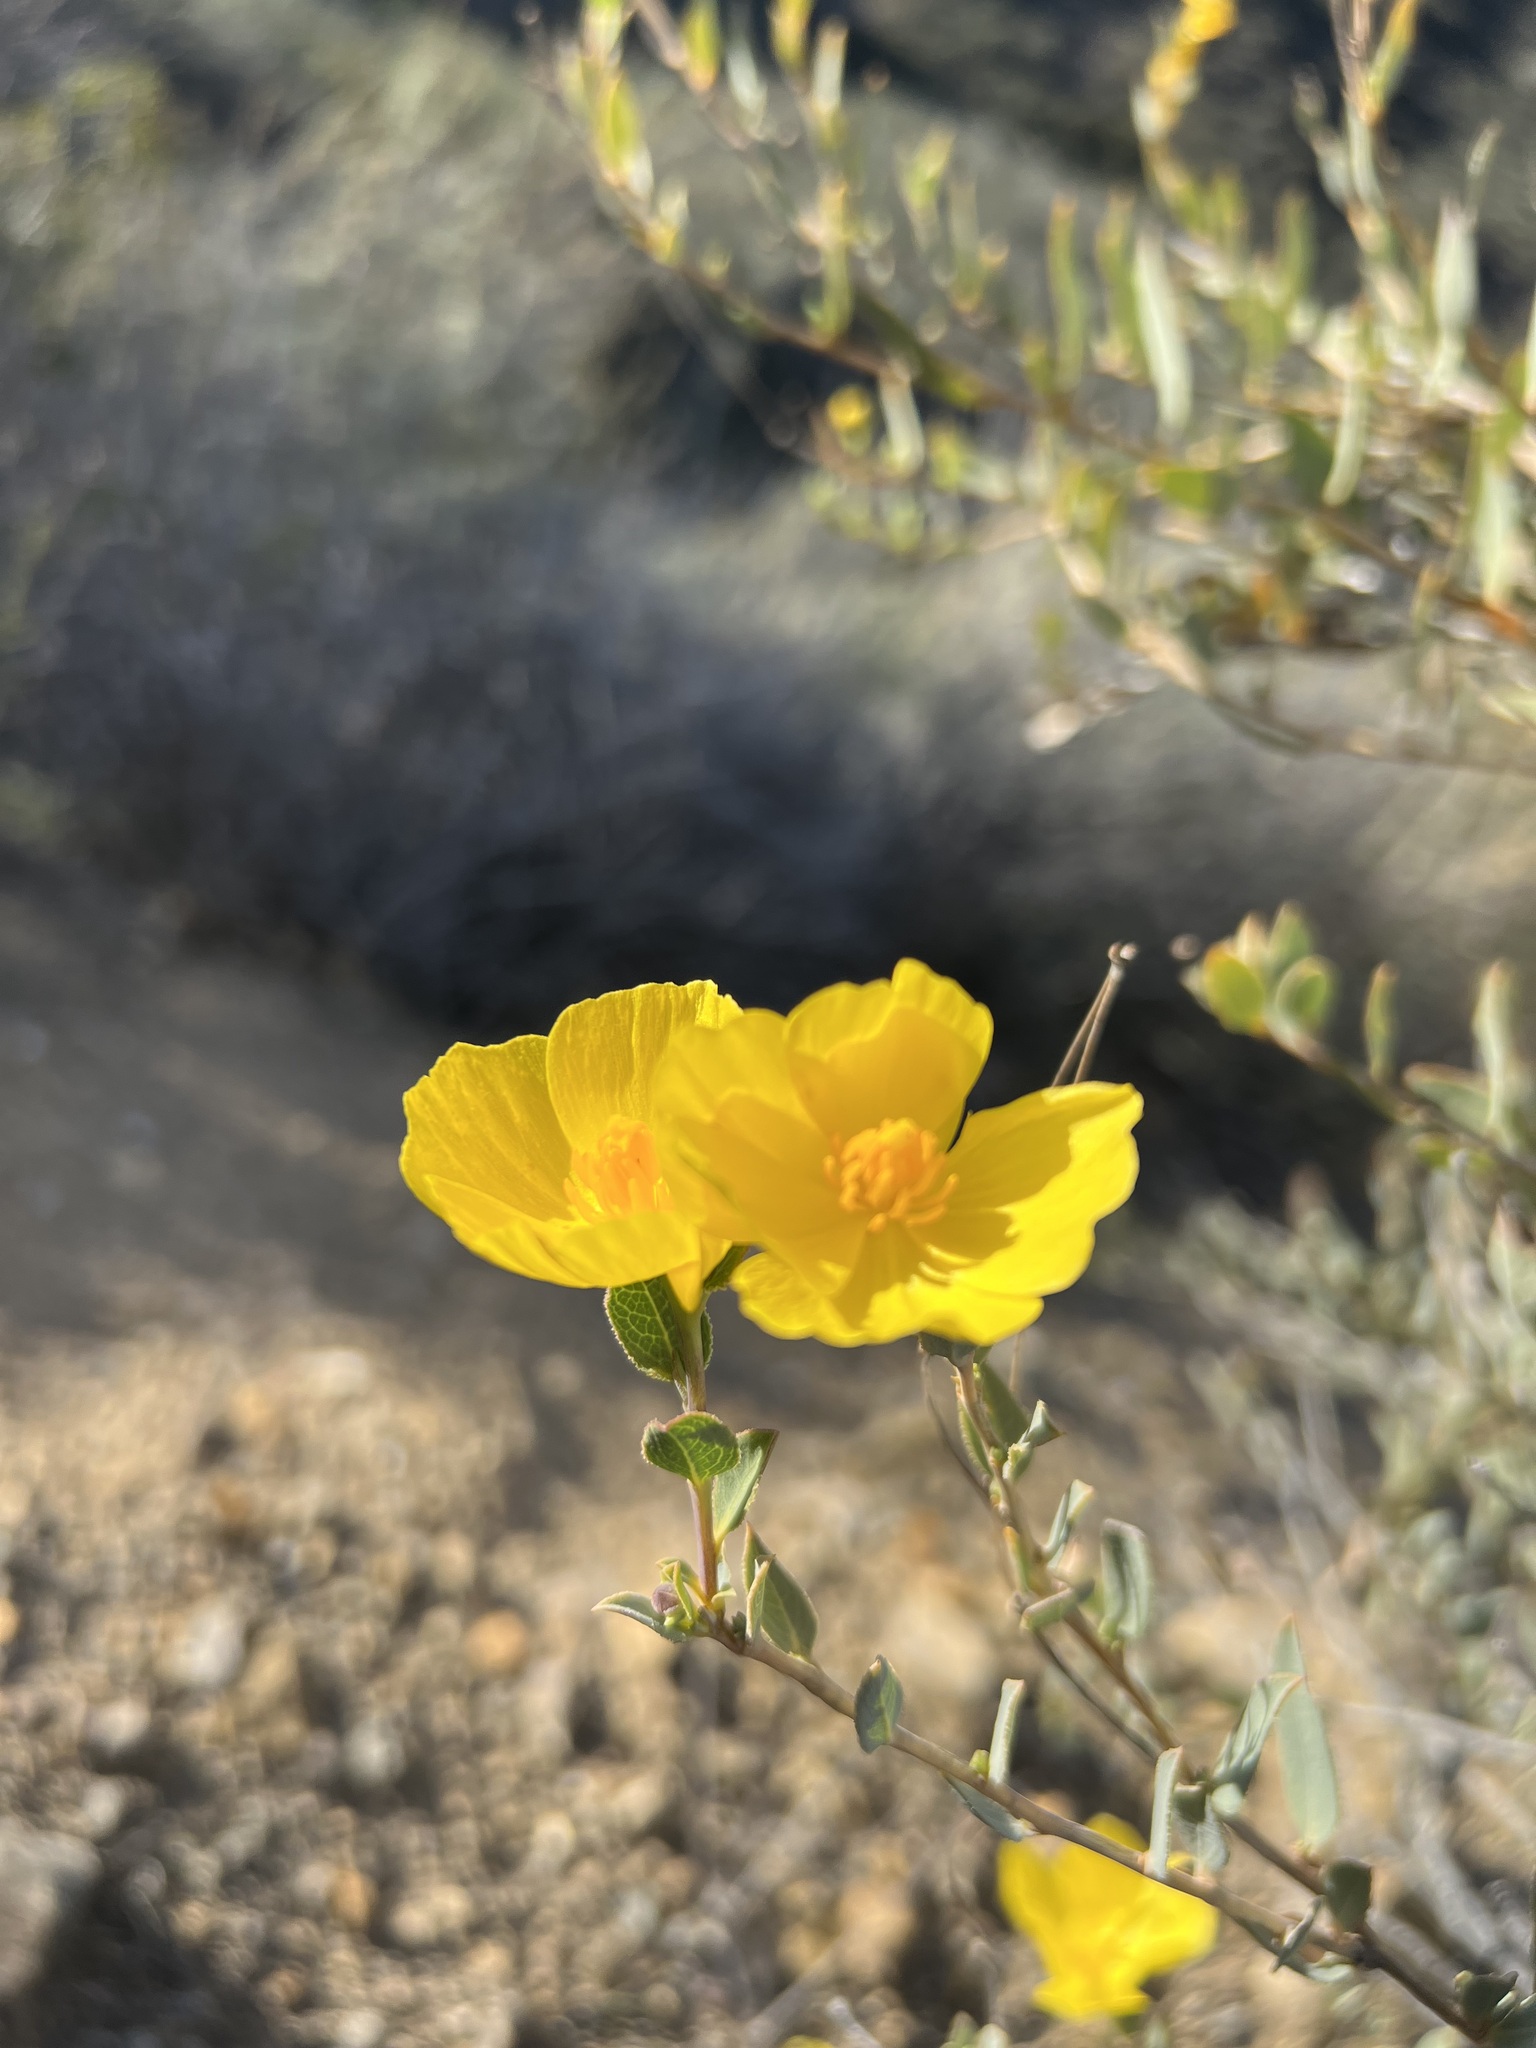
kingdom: Plantae
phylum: Tracheophyta
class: Magnoliopsida
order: Ranunculales
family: Papaveraceae
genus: Dendromecon
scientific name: Dendromecon rigida
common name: Tree poppy
